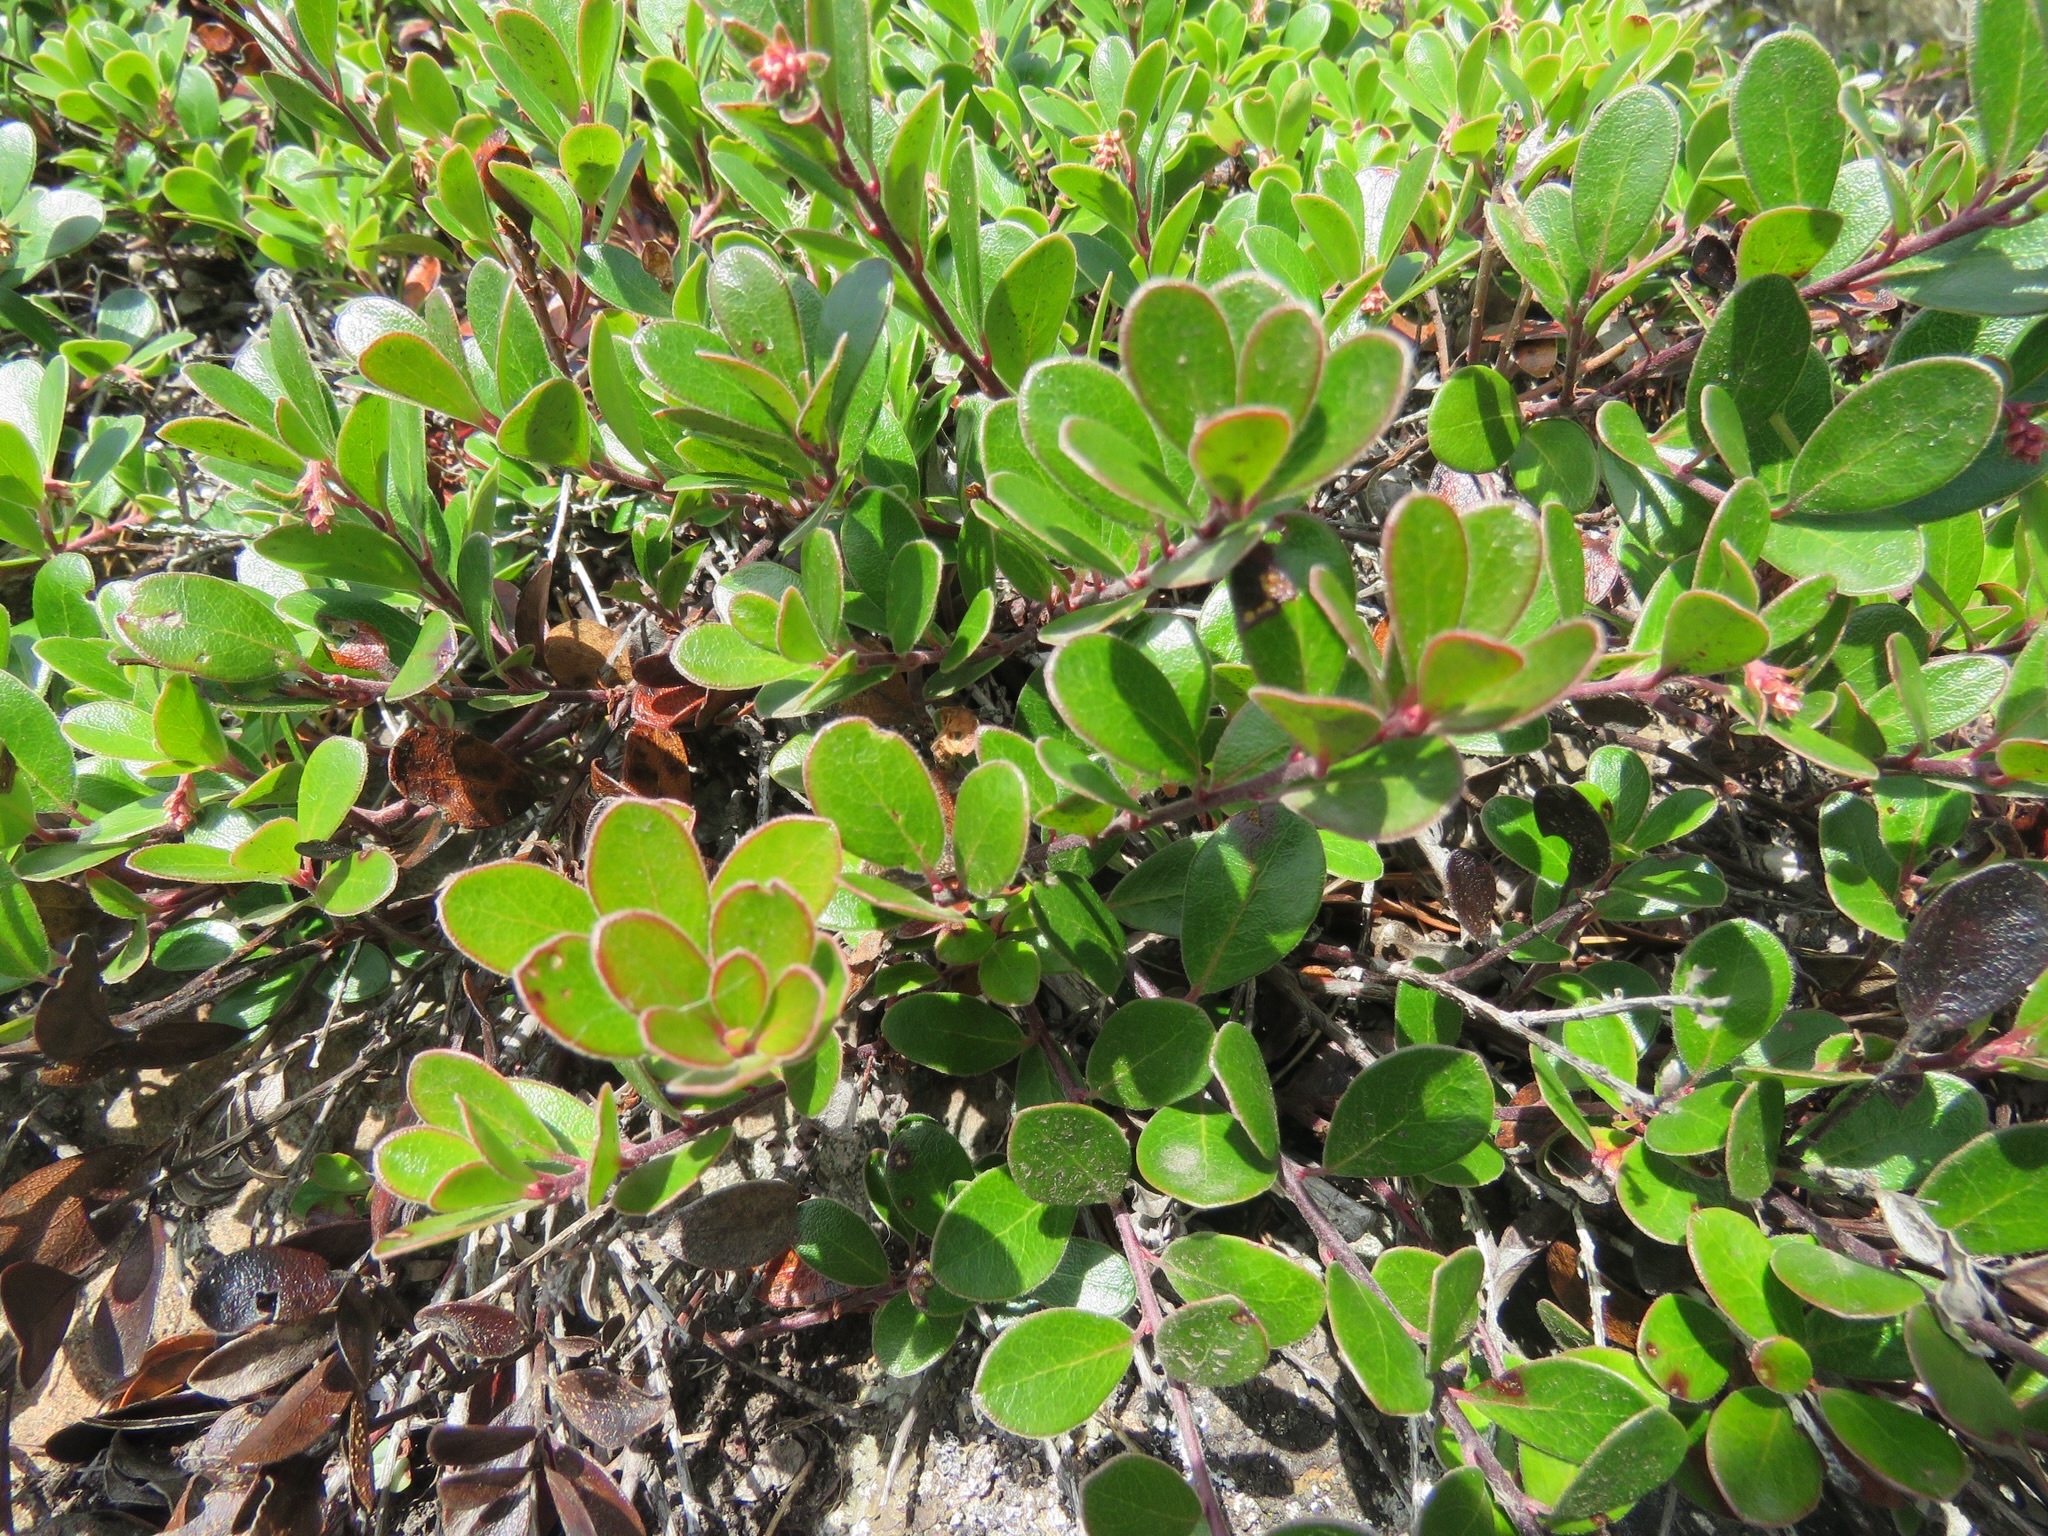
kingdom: Plantae
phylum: Tracheophyta
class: Magnoliopsida
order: Ericales
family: Ericaceae
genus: Arctostaphylos
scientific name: Arctostaphylos uva-ursi
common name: Bearberry
